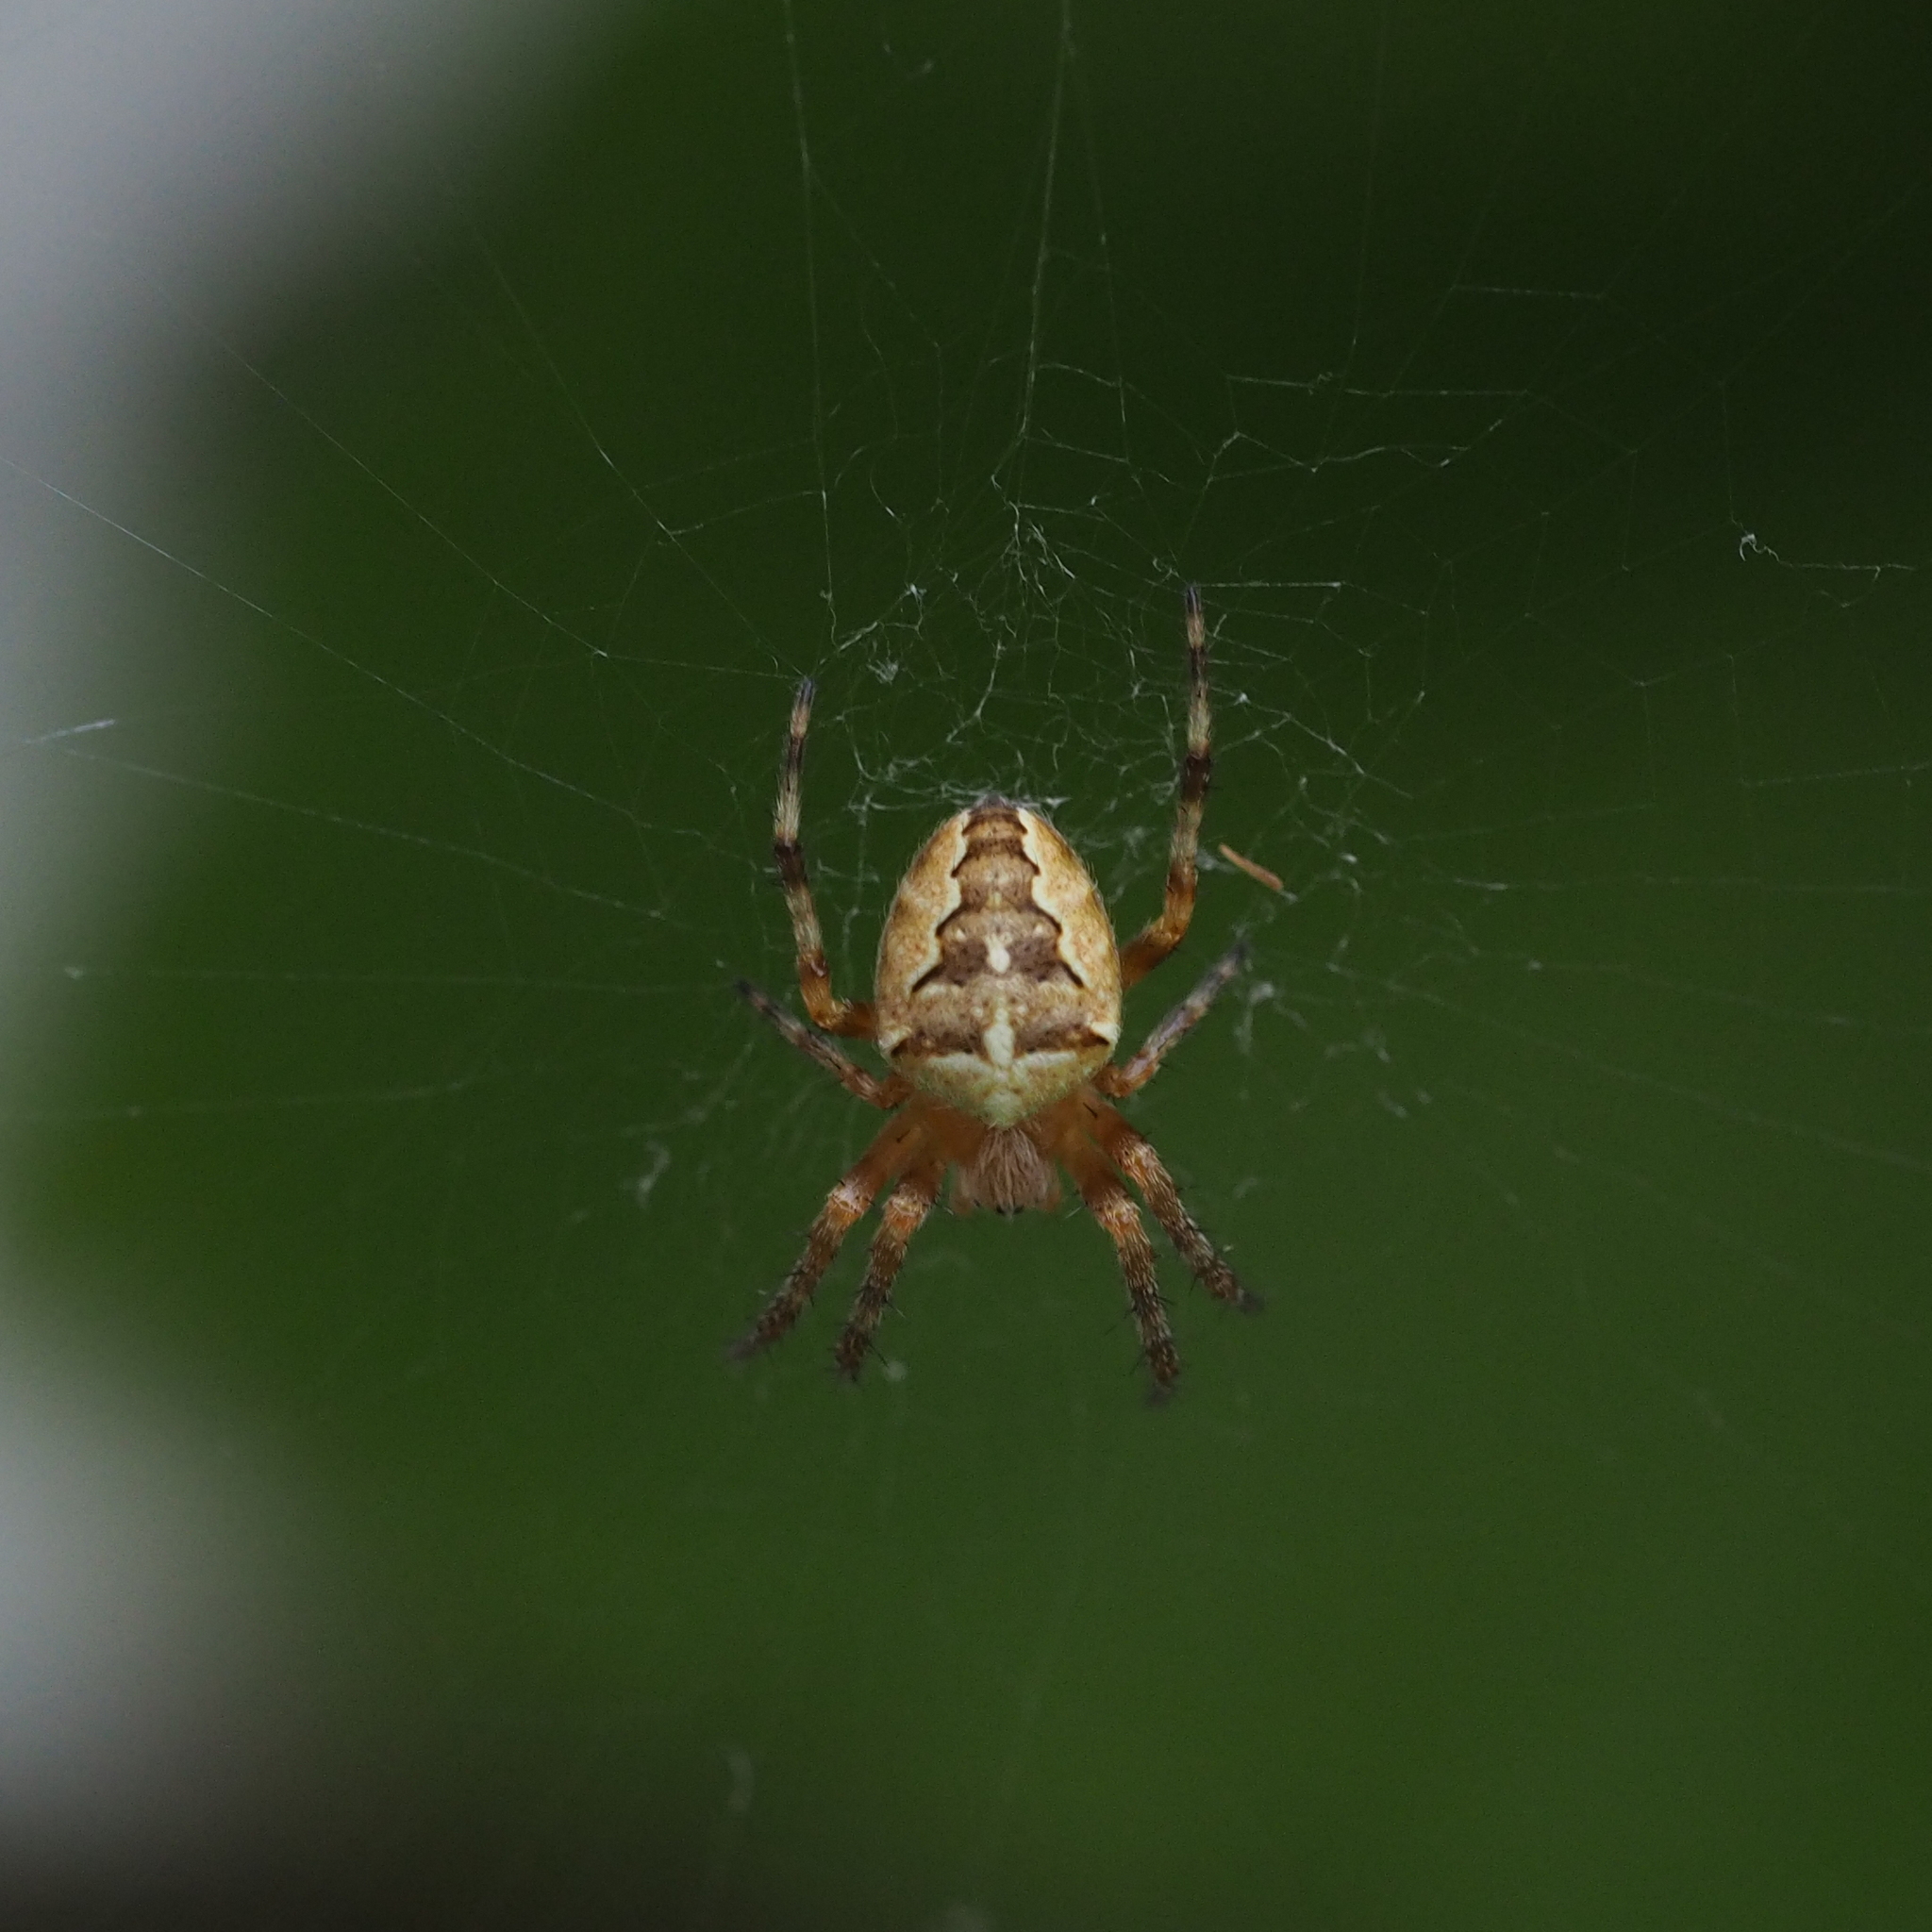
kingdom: Animalia
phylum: Arthropoda
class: Arachnida
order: Araneae
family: Araneidae
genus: Araneus
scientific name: Araneus diadematus
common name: Cross orbweaver
